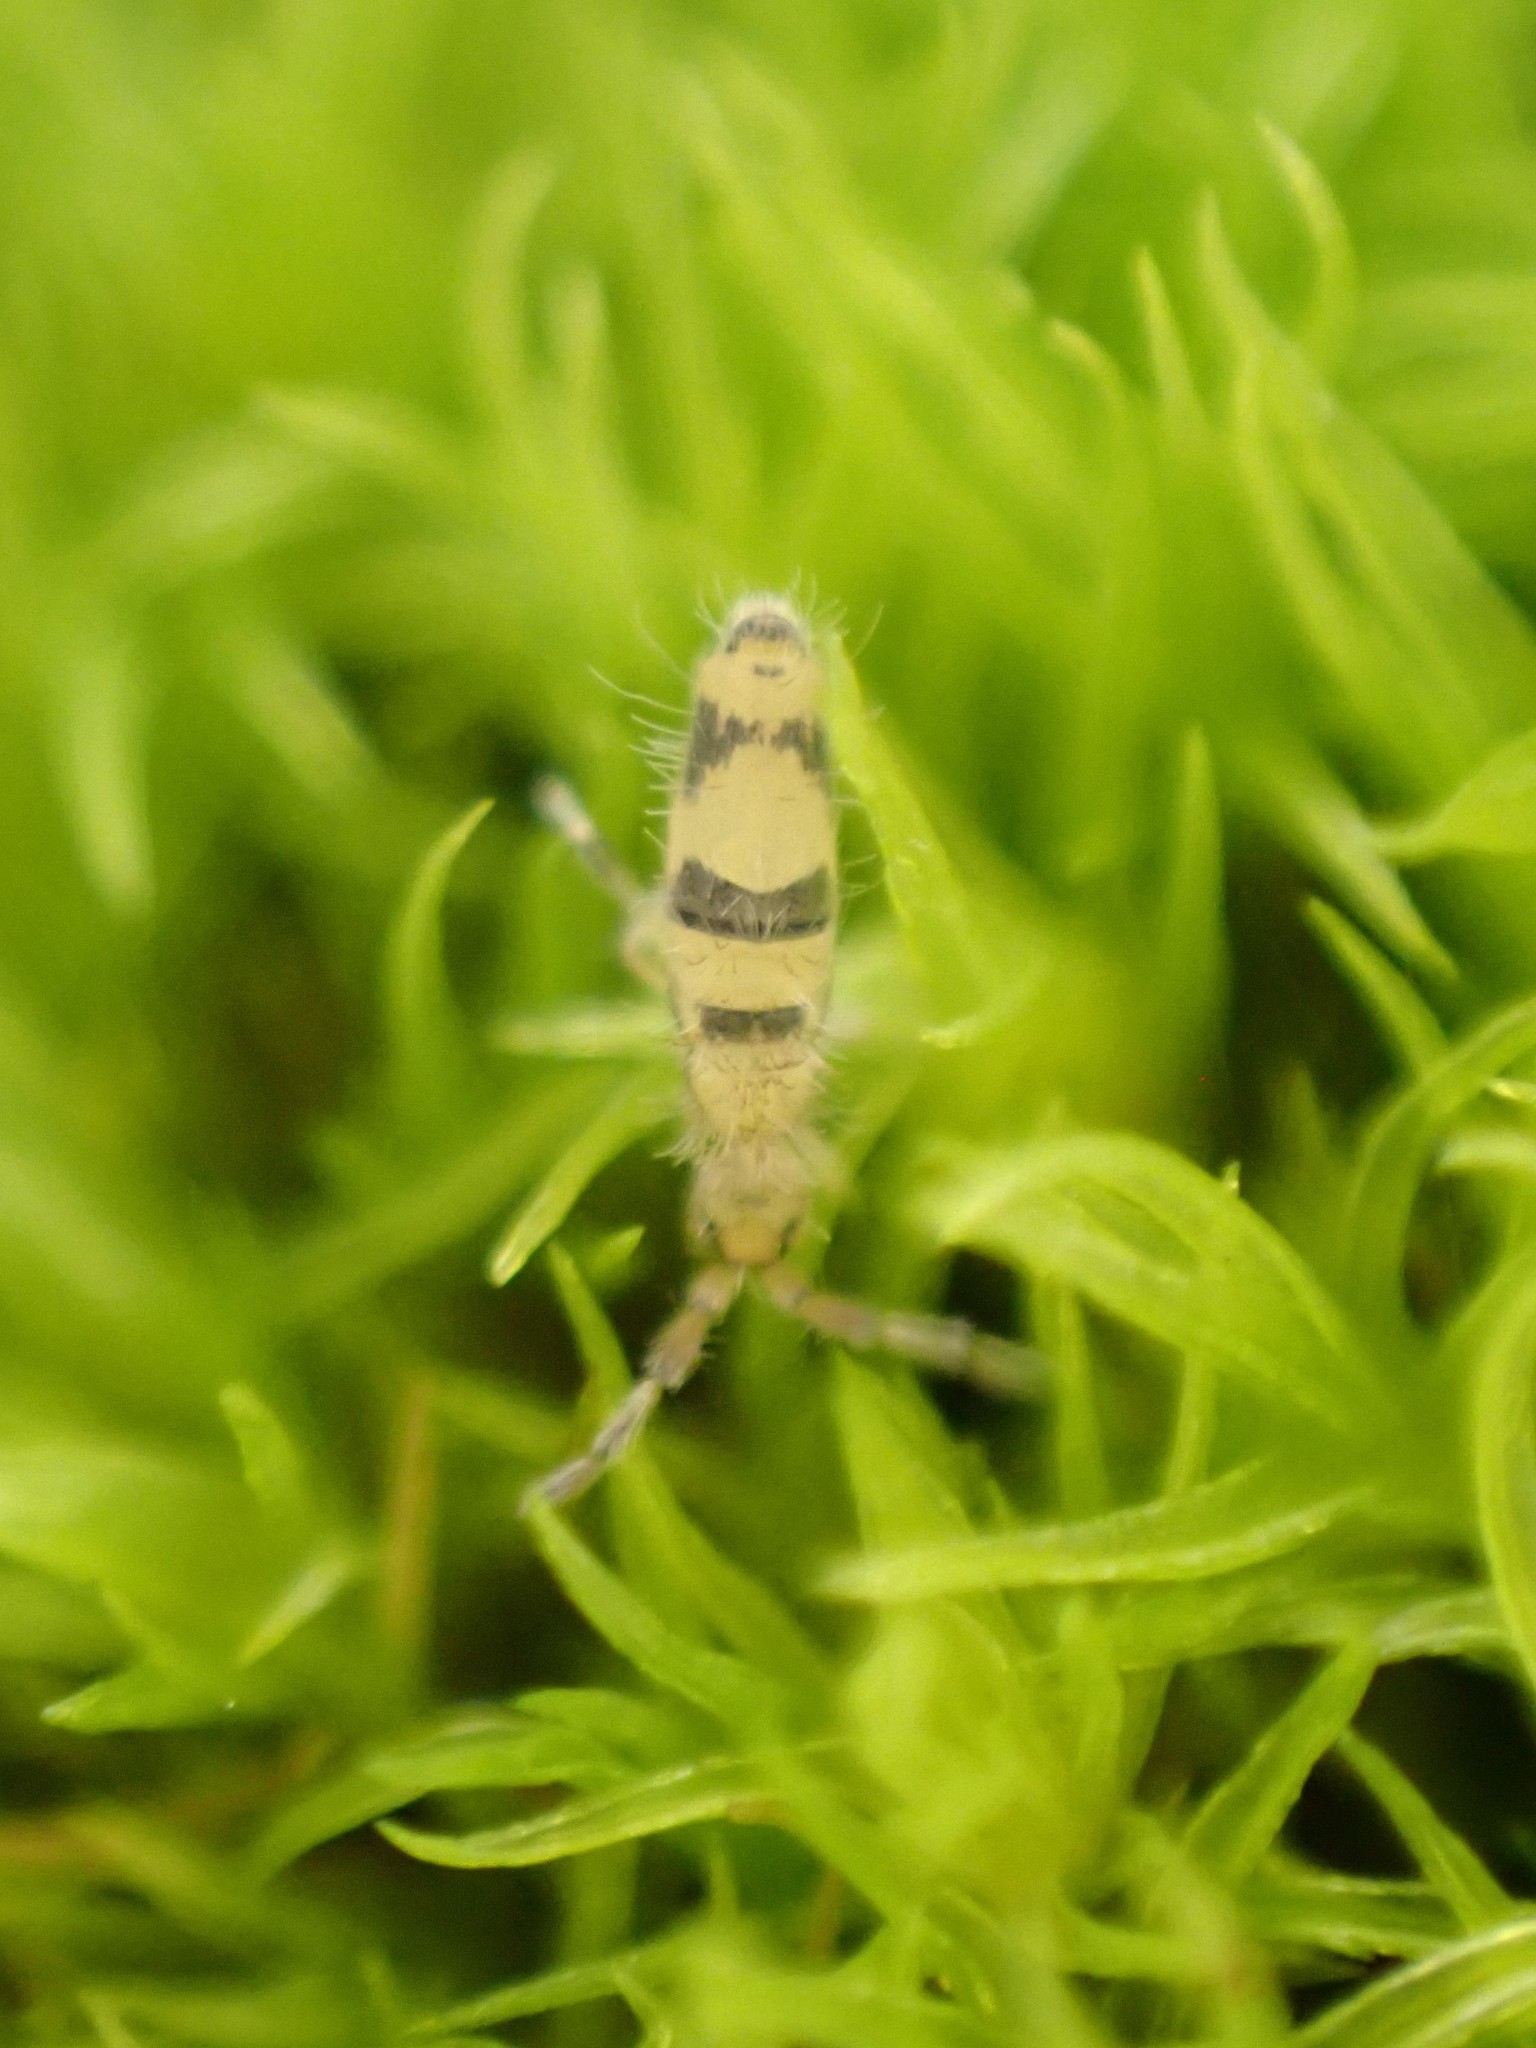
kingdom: Animalia
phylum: Arthropoda
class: Collembola
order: Entomobryomorpha
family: Entomobryidae
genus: Entomobrya
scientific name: Entomobrya triangularis
